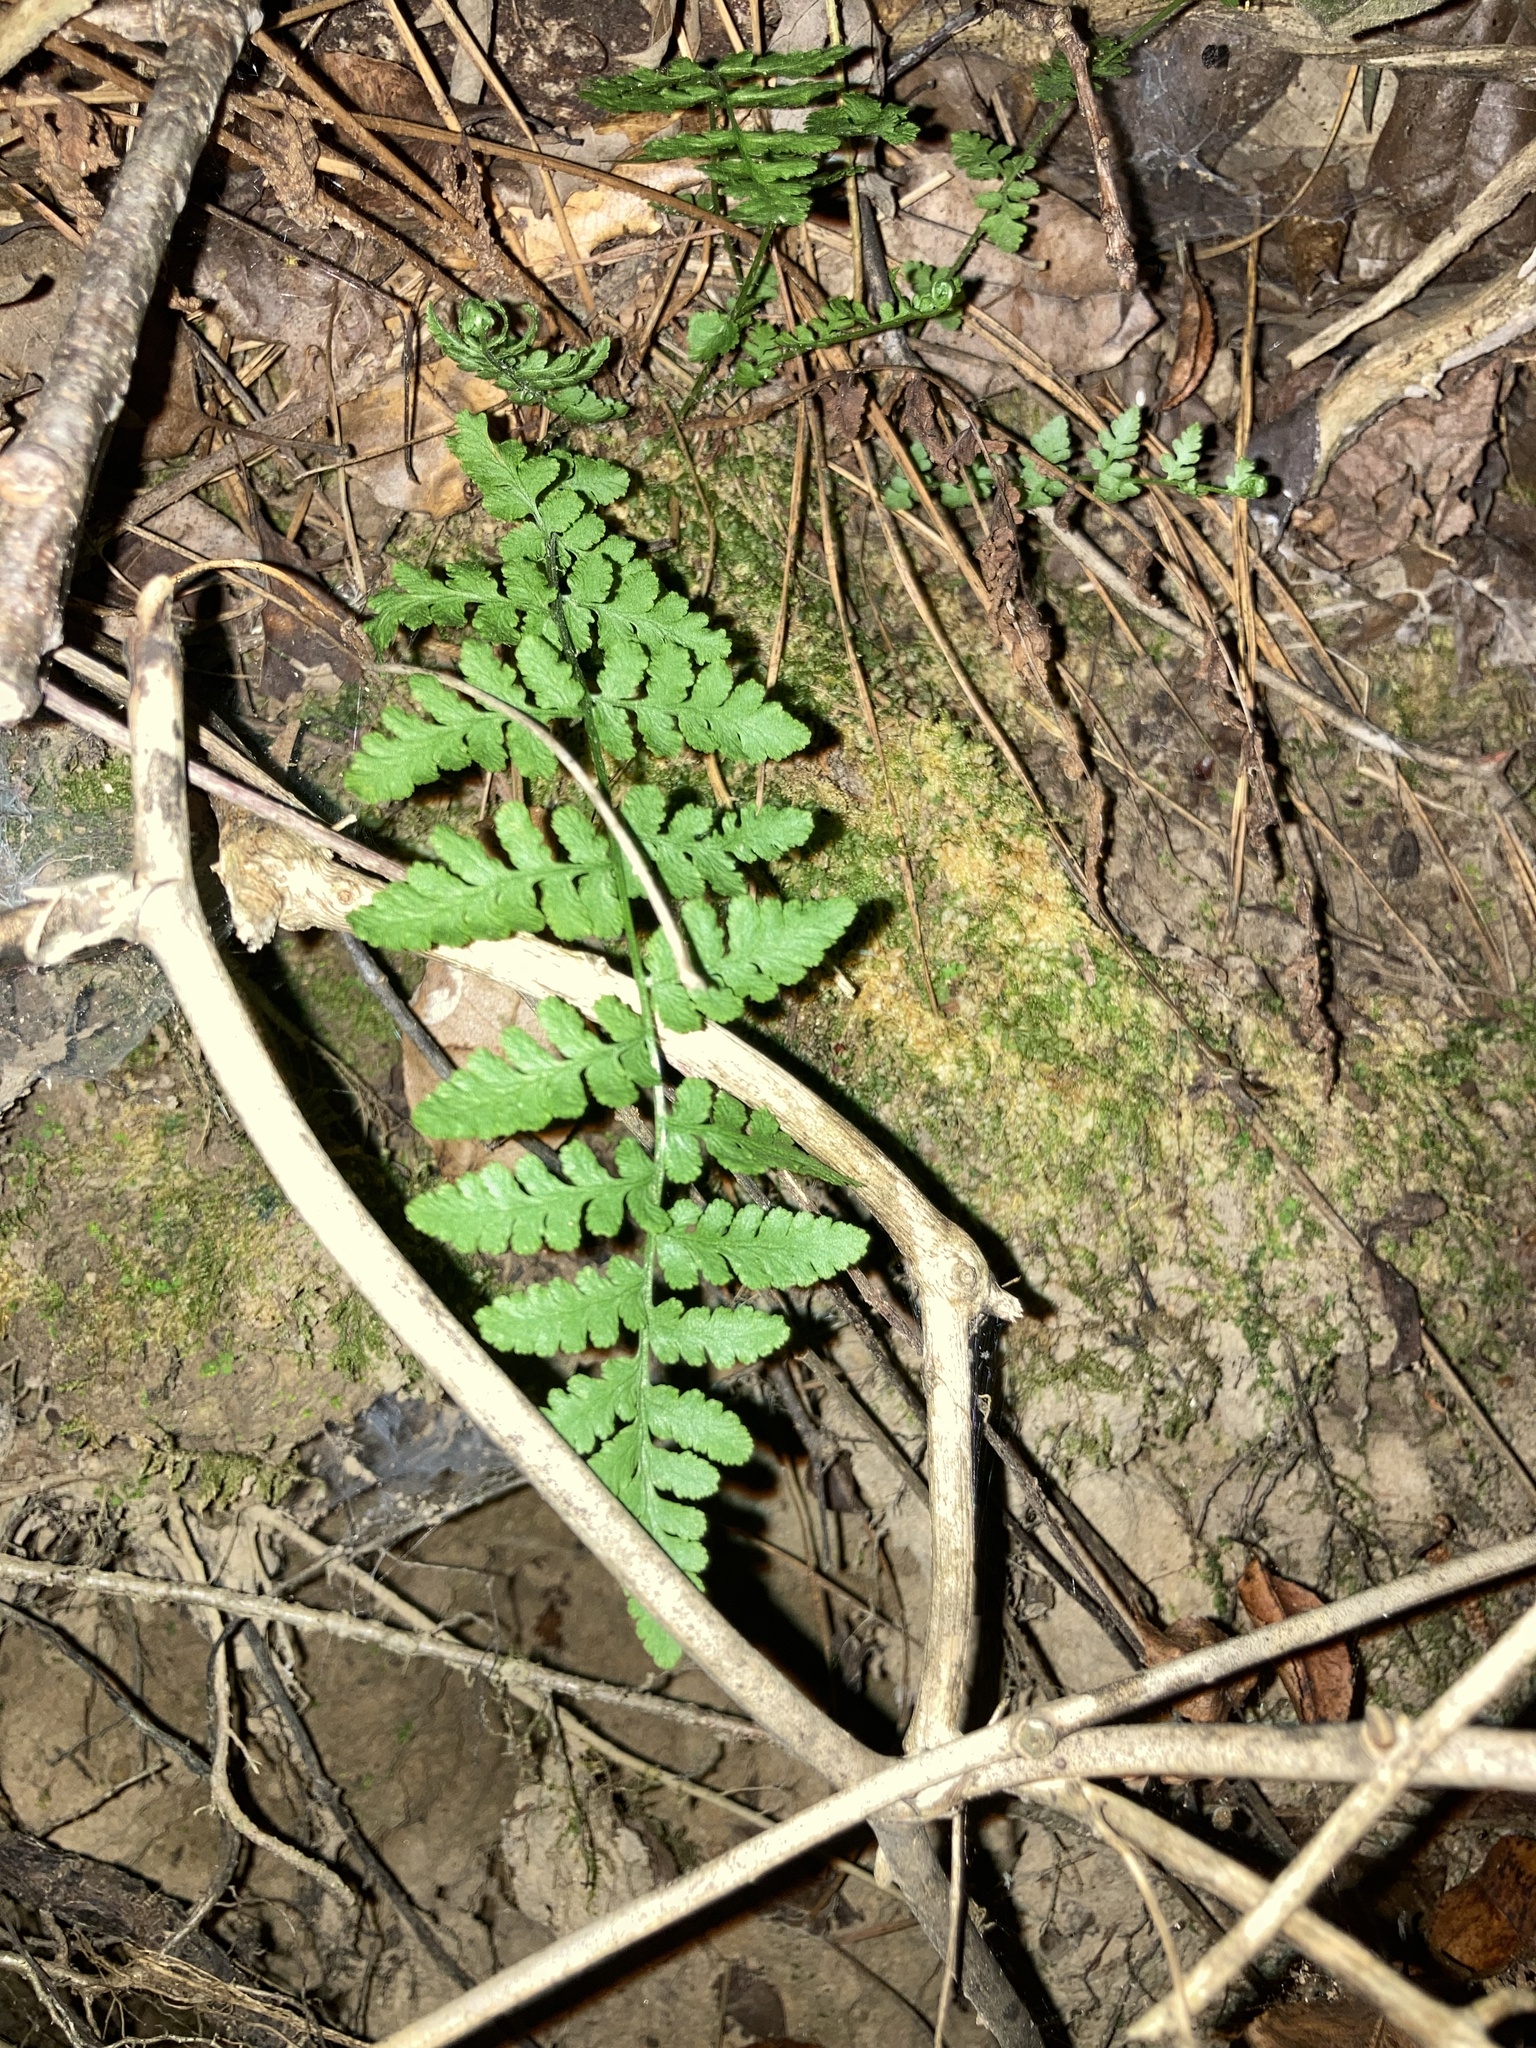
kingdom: Plantae
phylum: Tracheophyta
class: Polypodiopsida
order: Polypodiales
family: Woodsiaceae
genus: Physematium
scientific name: Physematium obtusum
